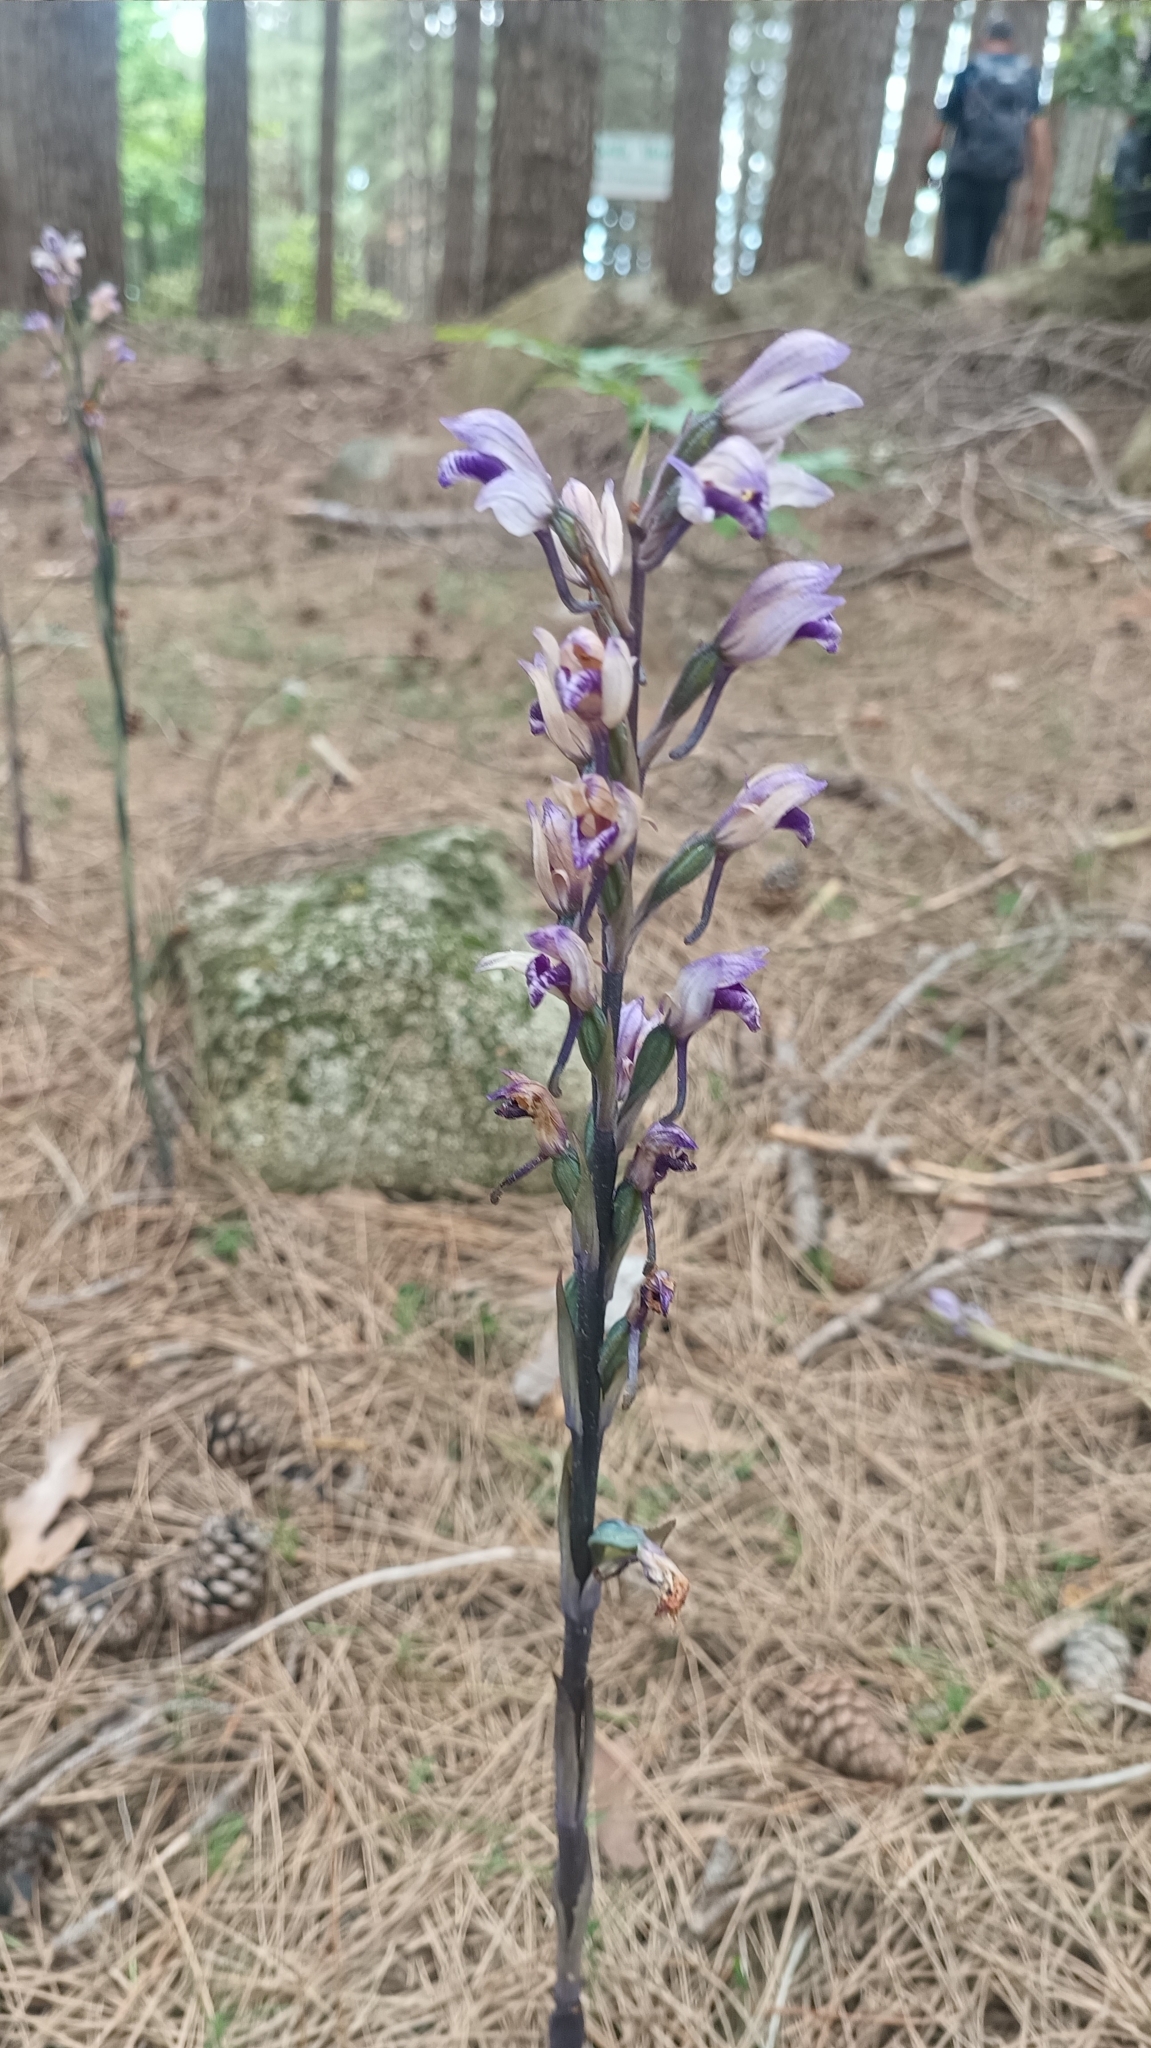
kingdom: Plantae
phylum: Tracheophyta
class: Liliopsida
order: Asparagales
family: Orchidaceae
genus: Limodorum
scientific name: Limodorum abortivum
